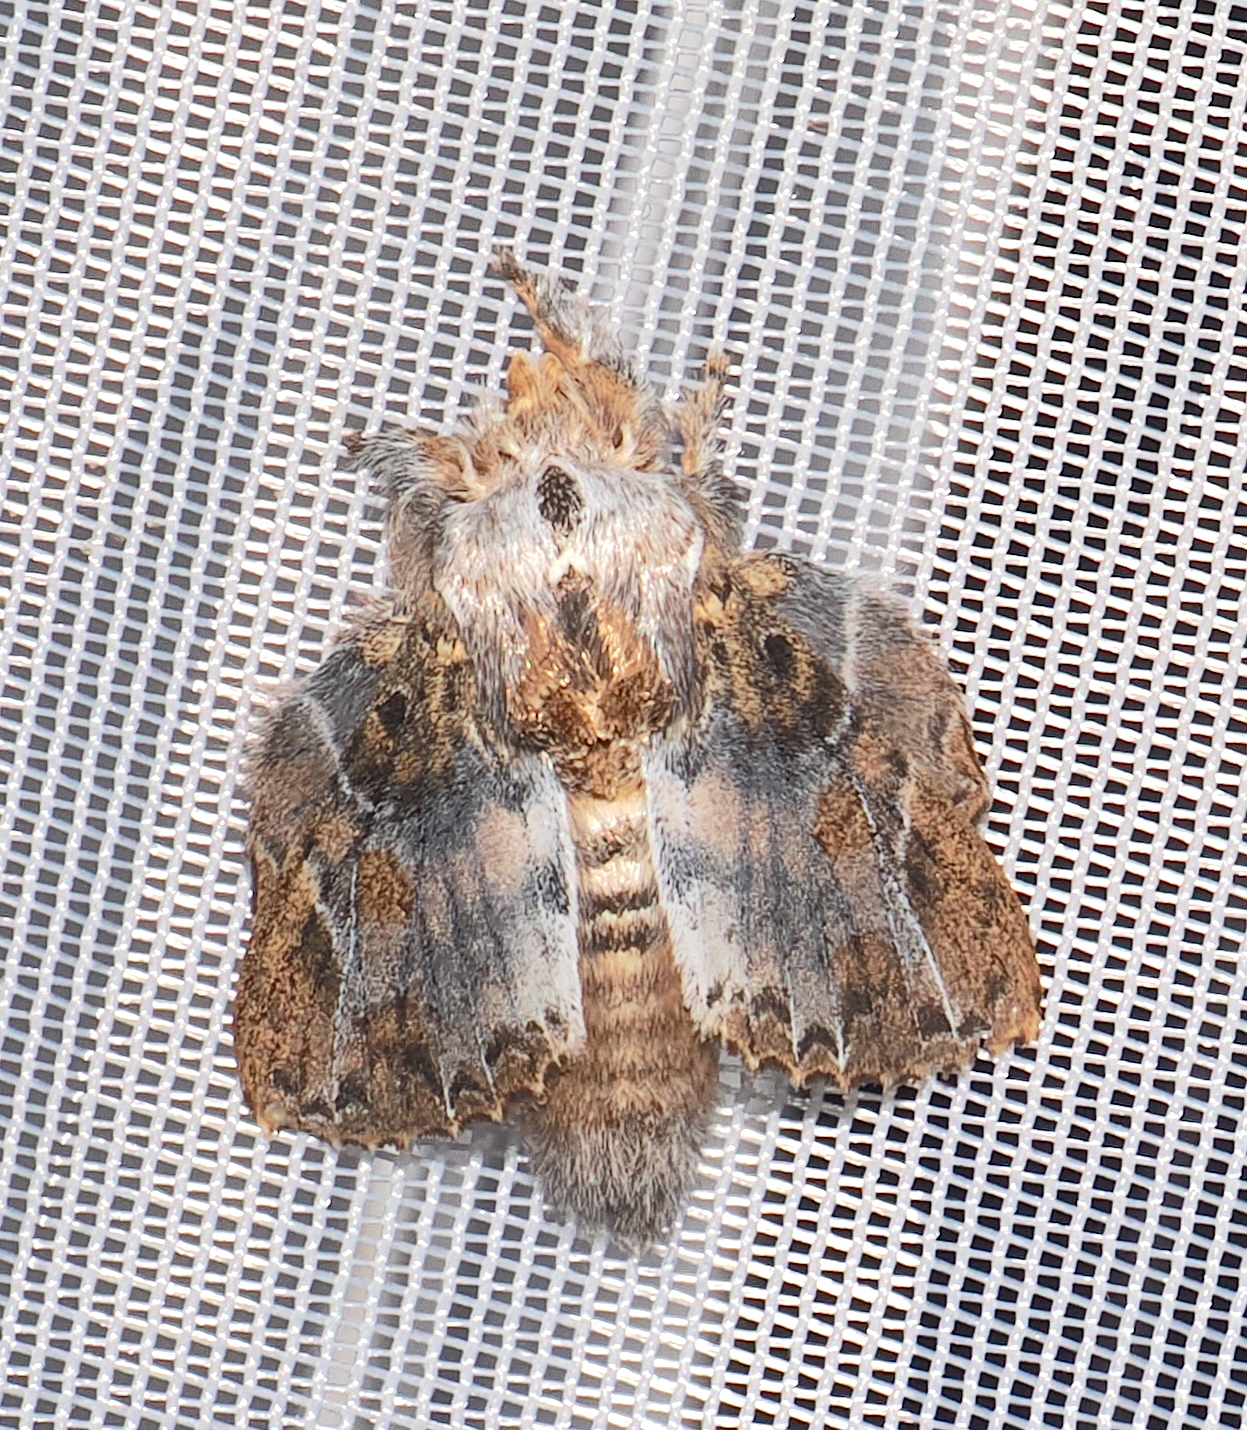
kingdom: Animalia
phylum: Arthropoda
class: Insecta
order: Lepidoptera
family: Lasiocampidae
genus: Euglyphis
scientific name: Euglyphis laronia
